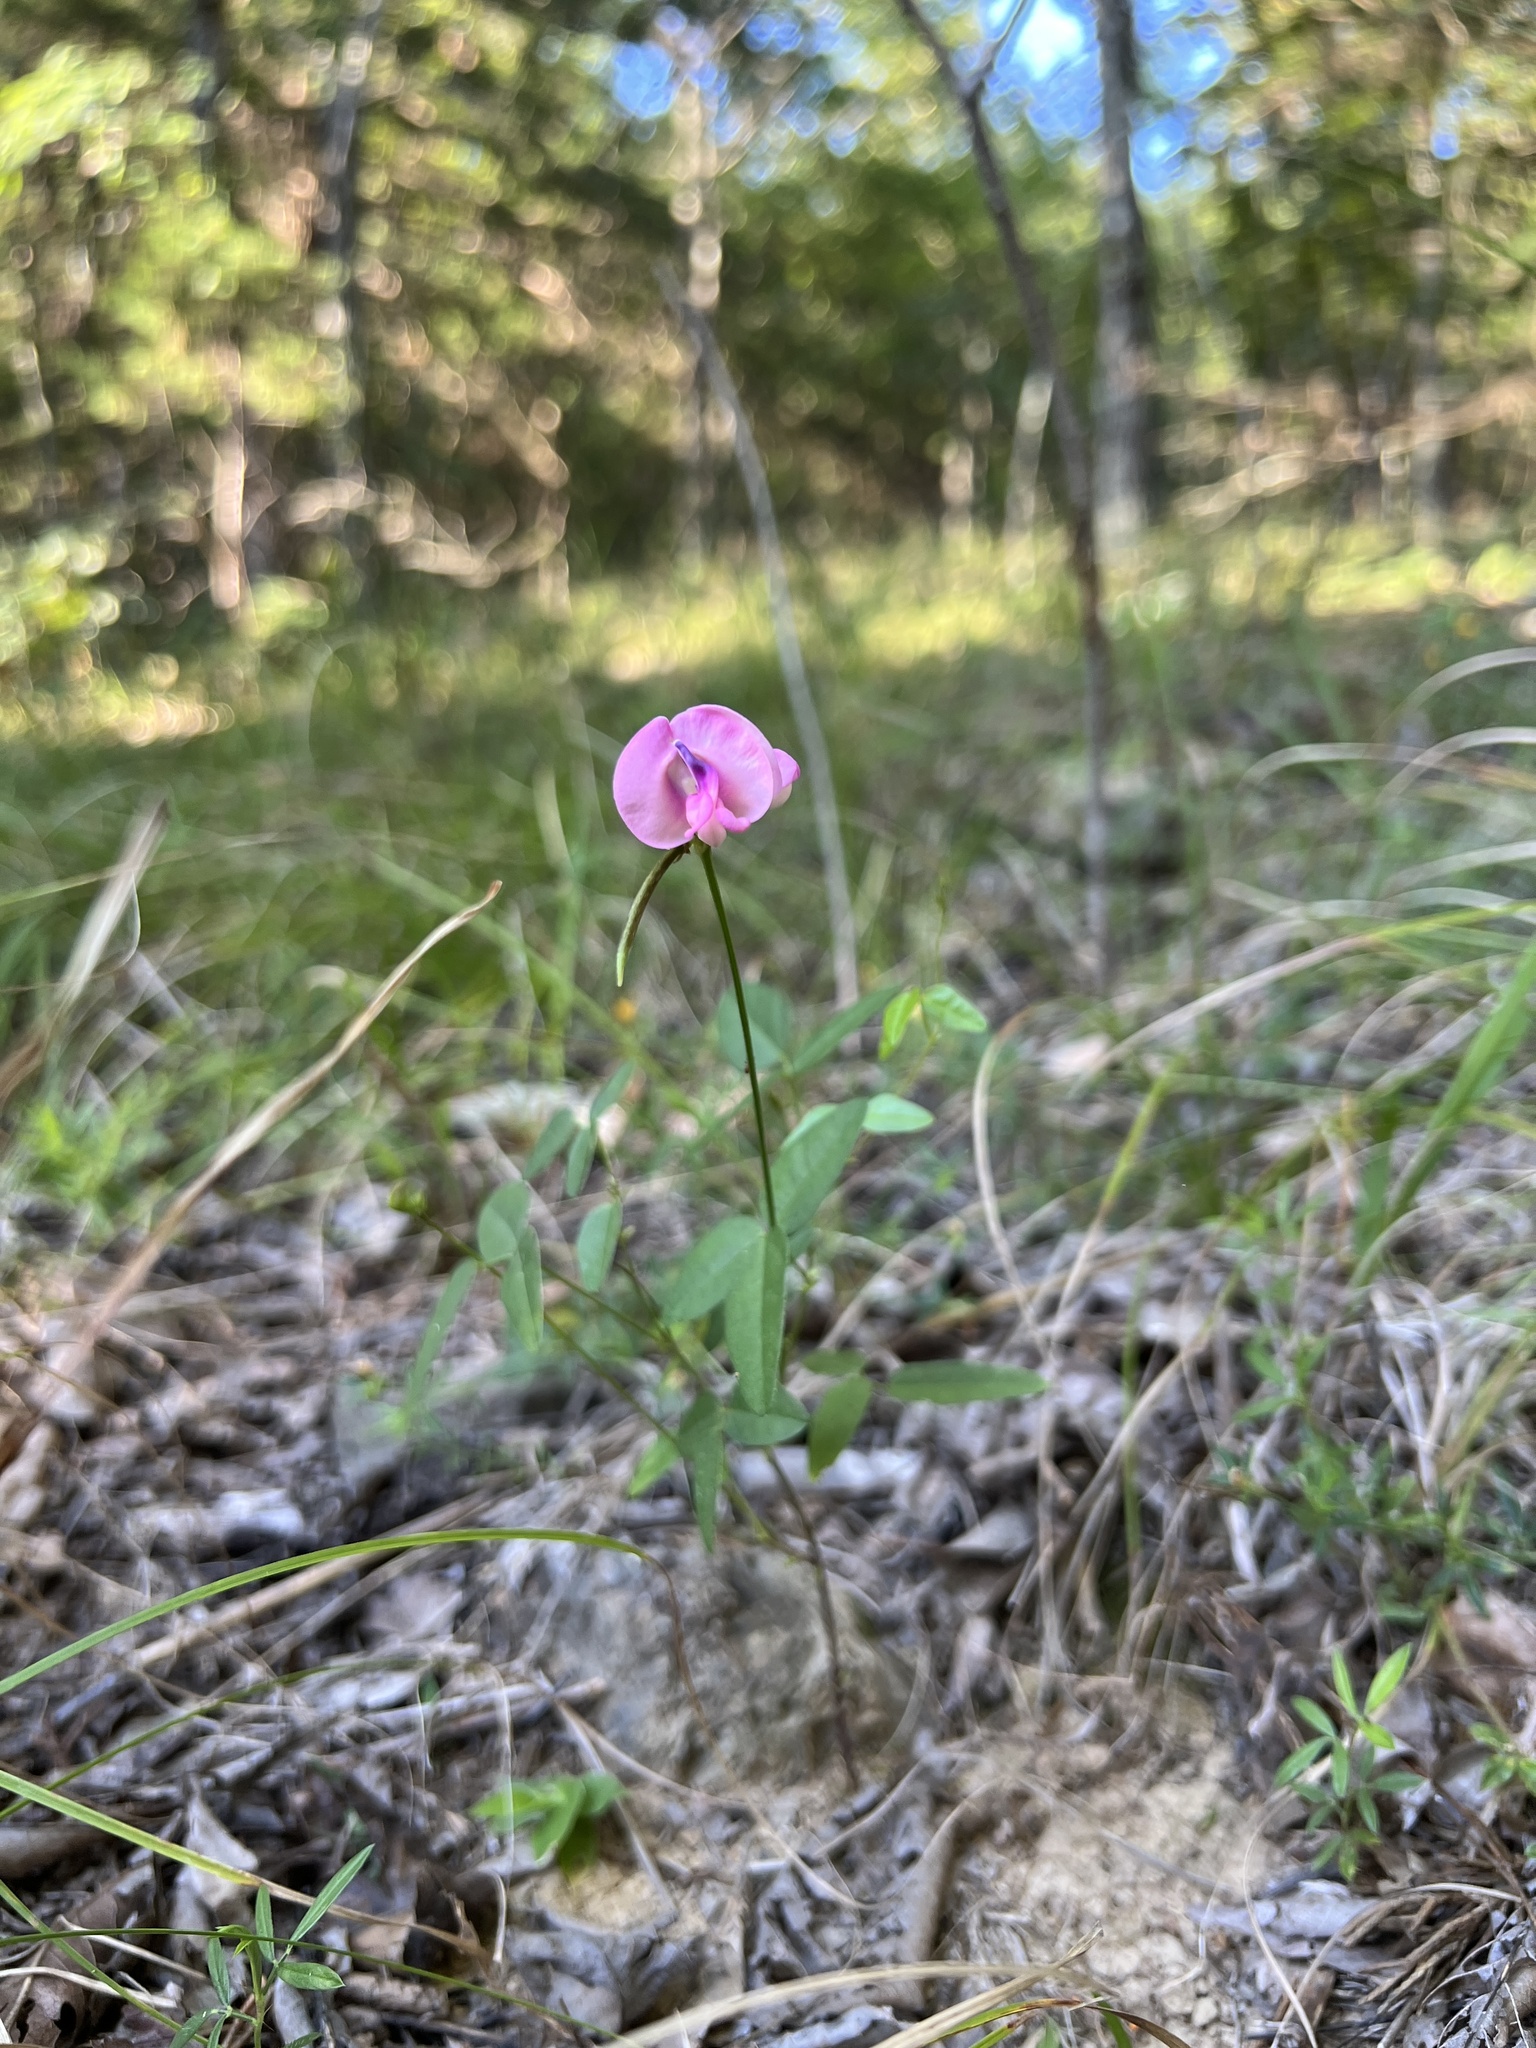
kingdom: Plantae
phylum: Tracheophyta
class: Magnoliopsida
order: Fabales
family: Fabaceae
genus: Strophostyles
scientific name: Strophostyles umbellata
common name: Perennial wild bean
